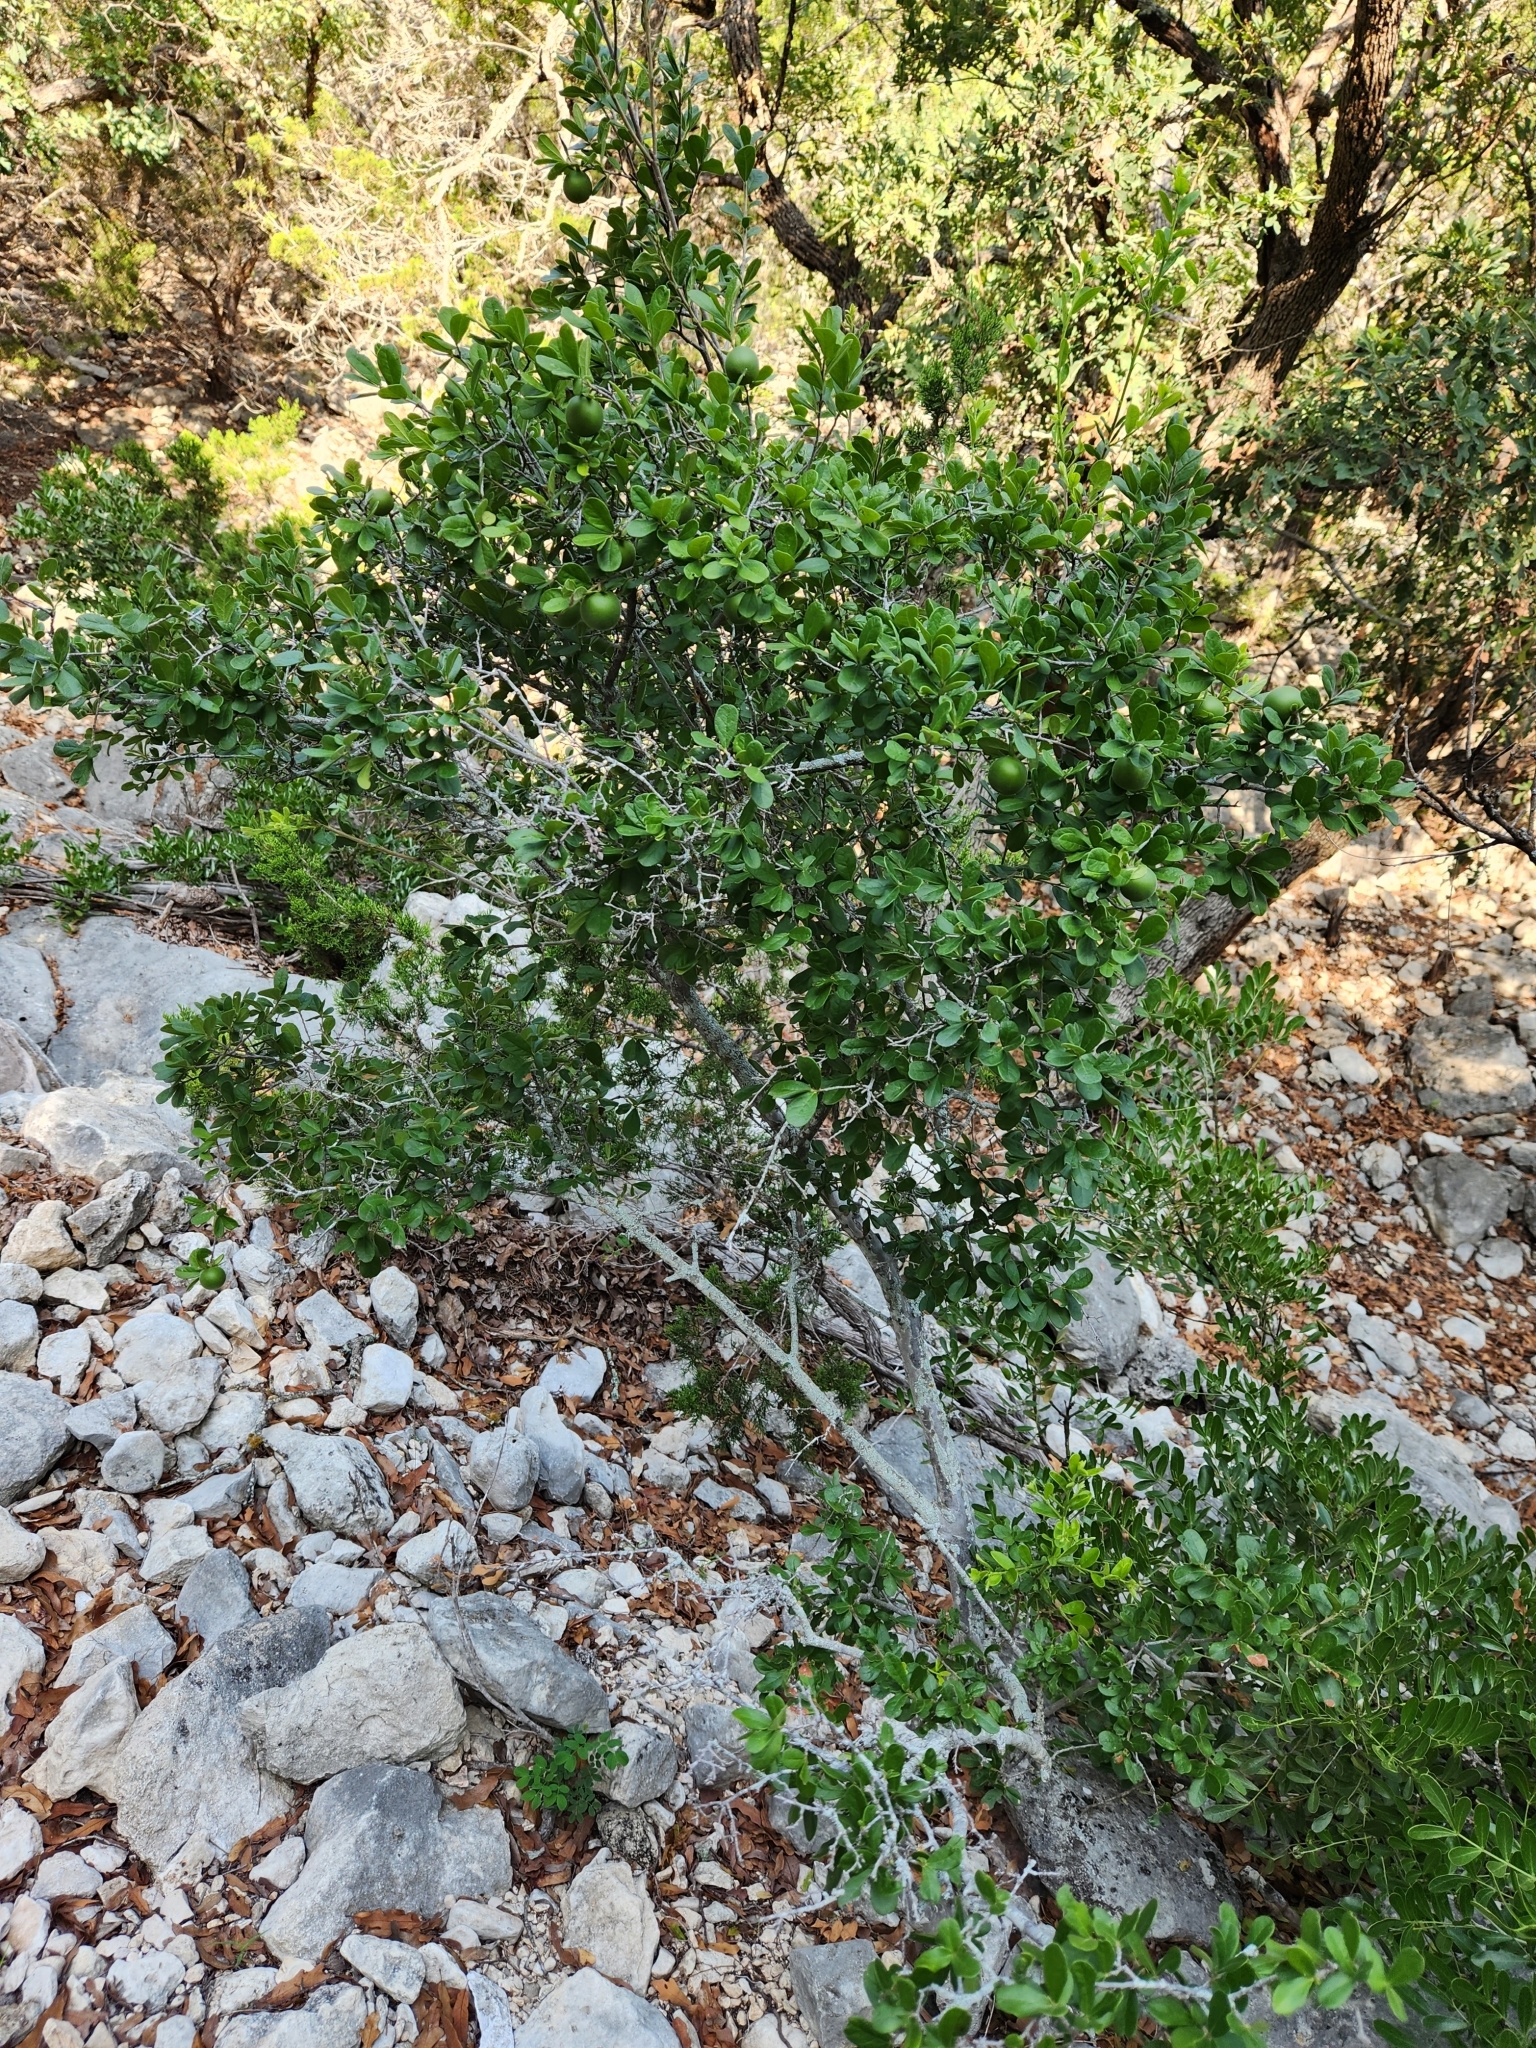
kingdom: Plantae
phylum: Tracheophyta
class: Magnoliopsida
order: Ericales
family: Ebenaceae
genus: Diospyros
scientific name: Diospyros texana
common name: Texas persimmon
